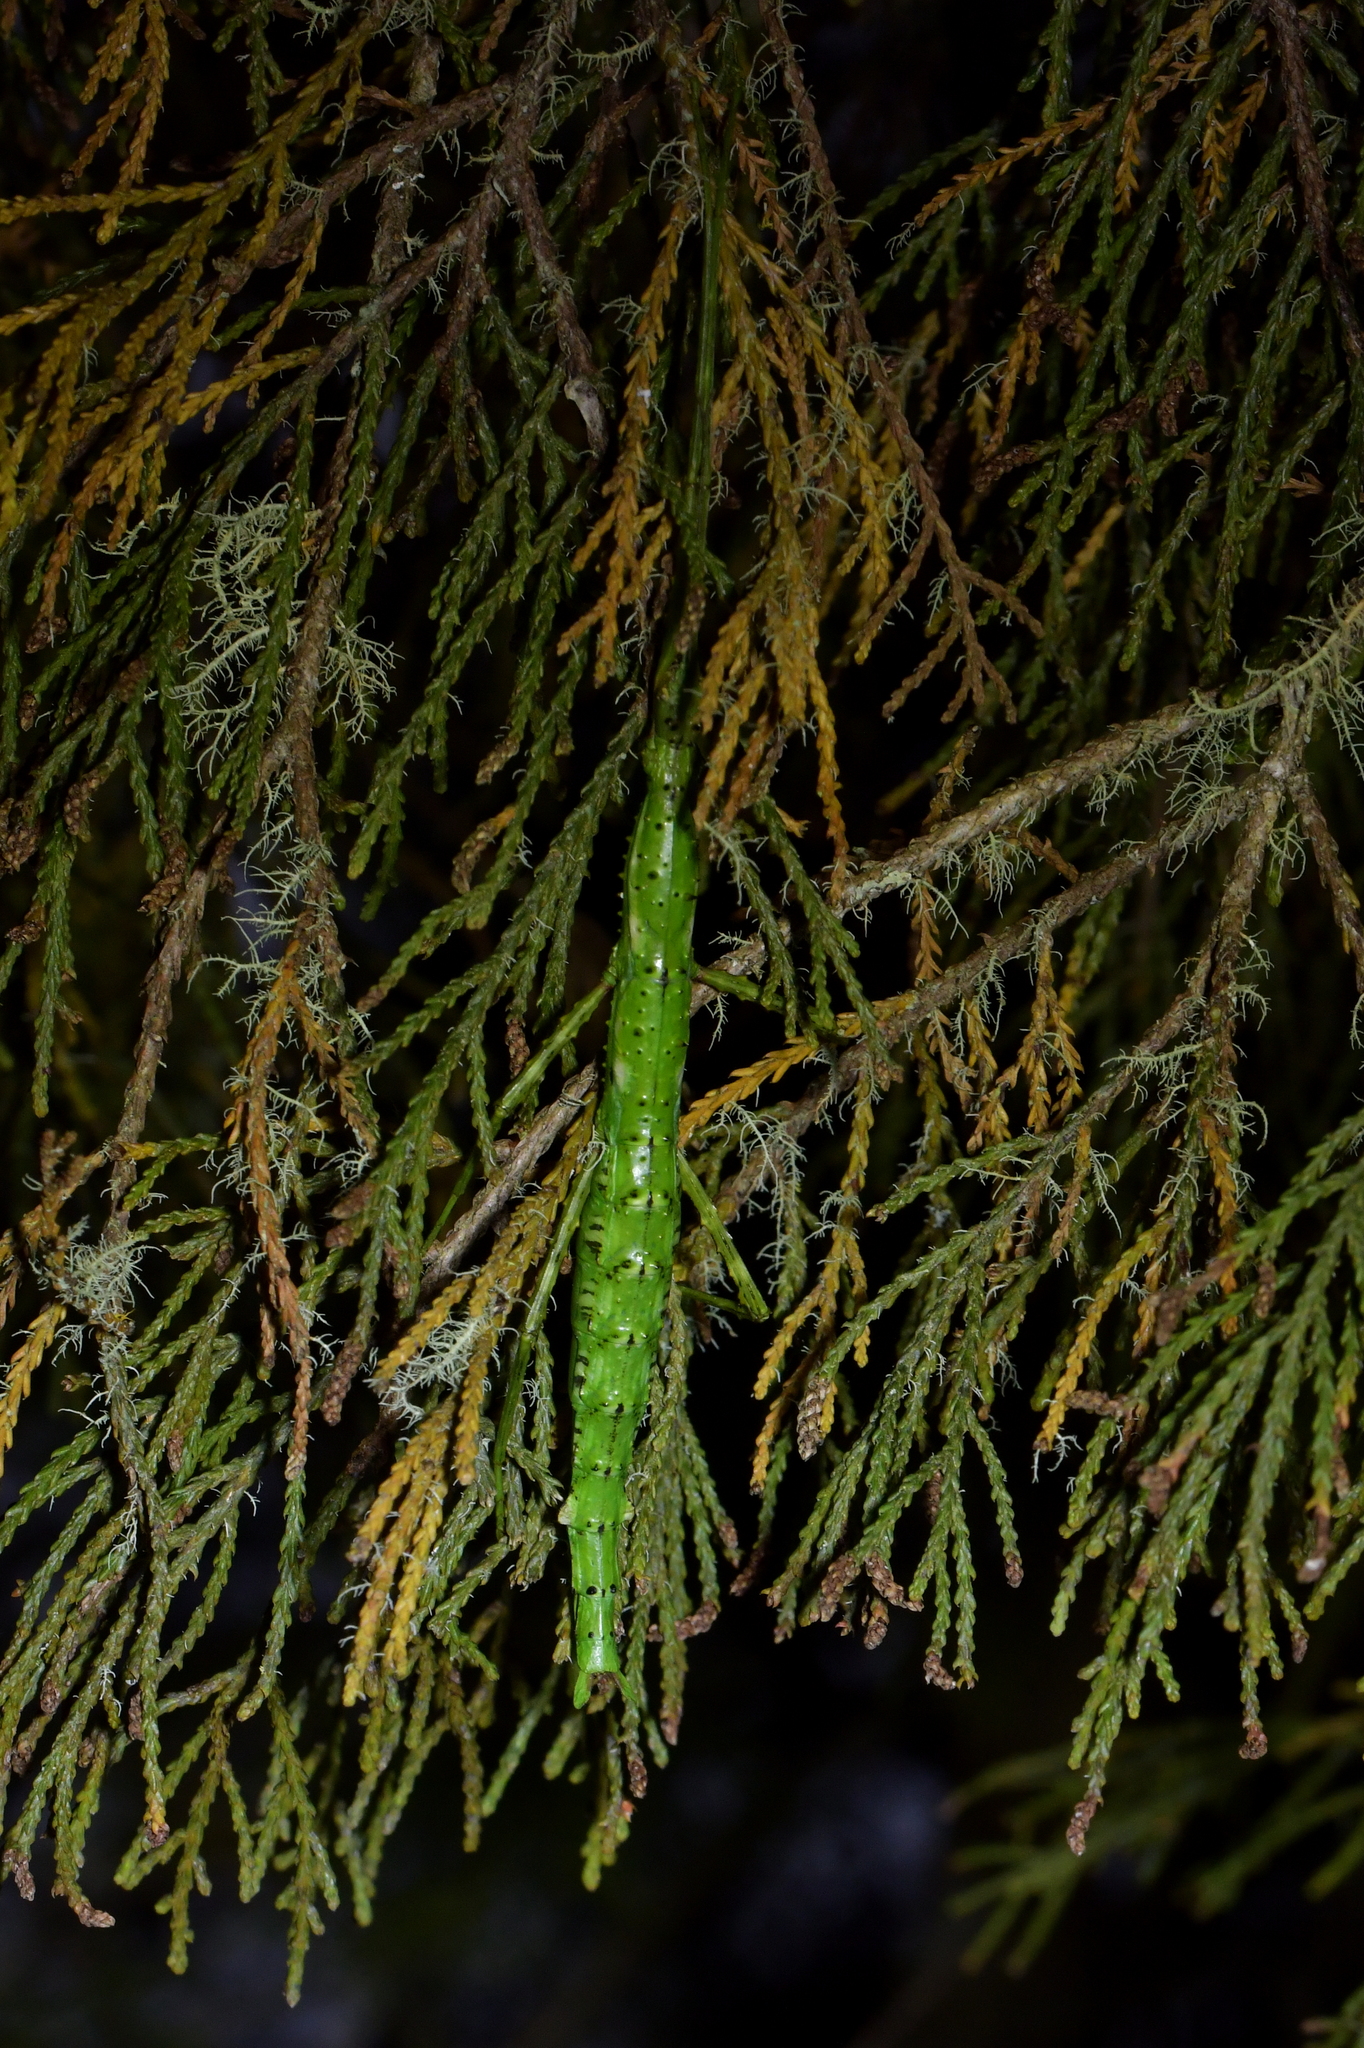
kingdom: Animalia
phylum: Arthropoda
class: Insecta
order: Phasmida
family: Phasmatidae
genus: Acanthoxyla
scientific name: Acanthoxyla prasina
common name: Black-spined stick insect
